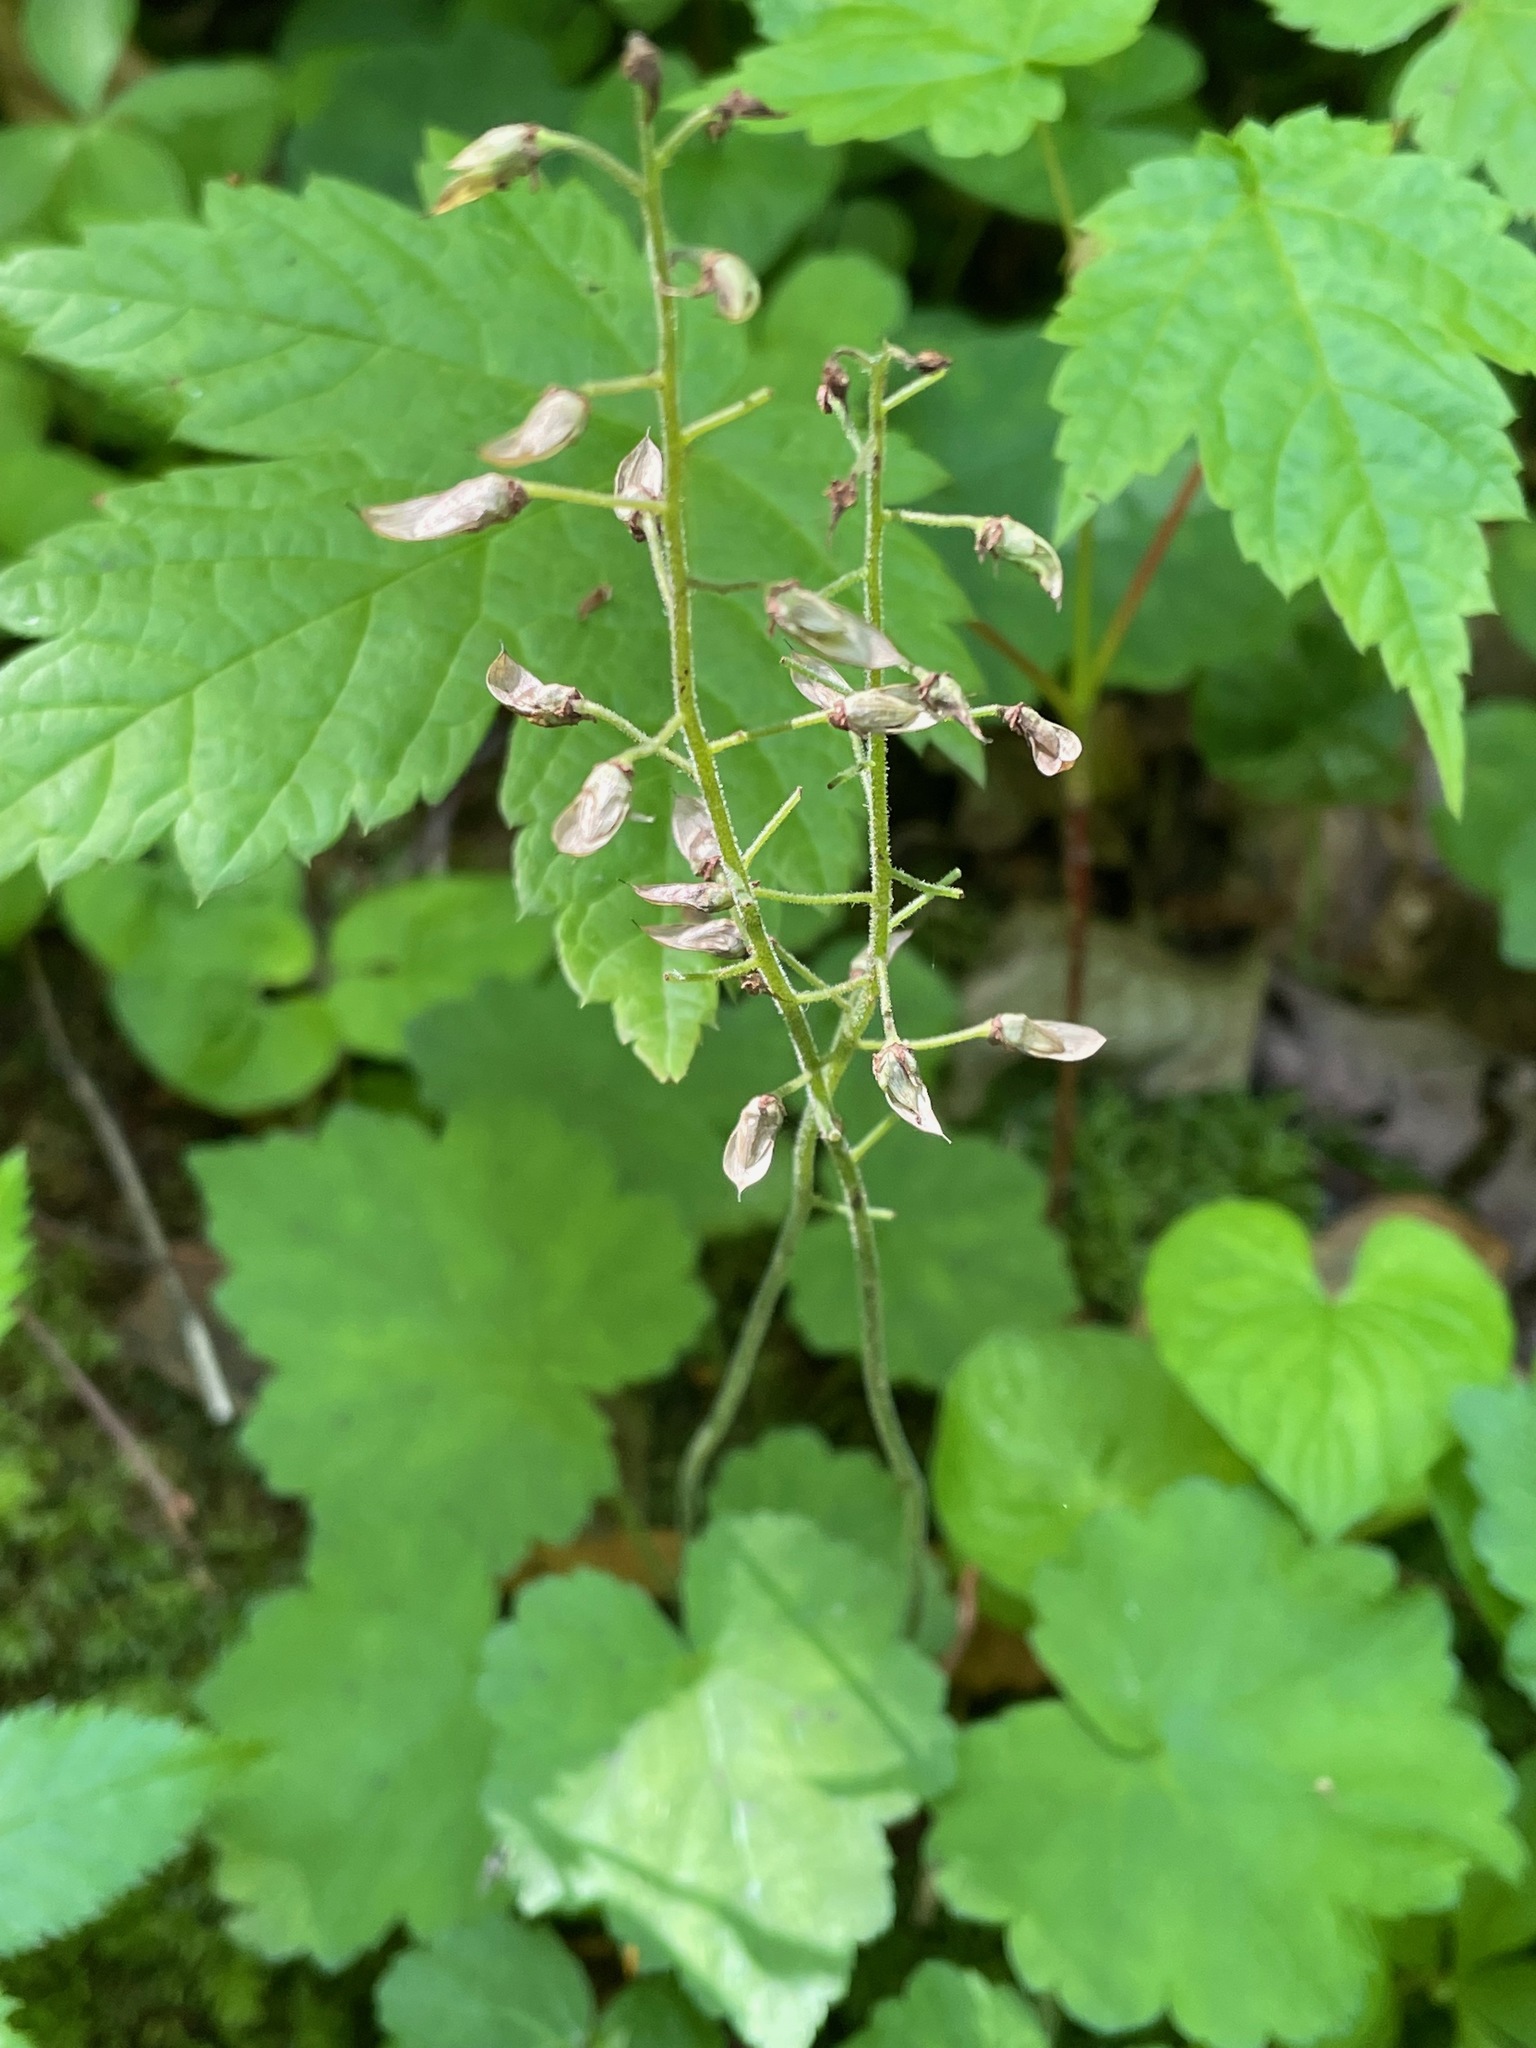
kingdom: Plantae
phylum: Tracheophyta
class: Magnoliopsida
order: Saxifragales
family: Saxifragaceae
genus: Tiarella
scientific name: Tiarella stolonifera
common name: Stoloniferous foamflower
